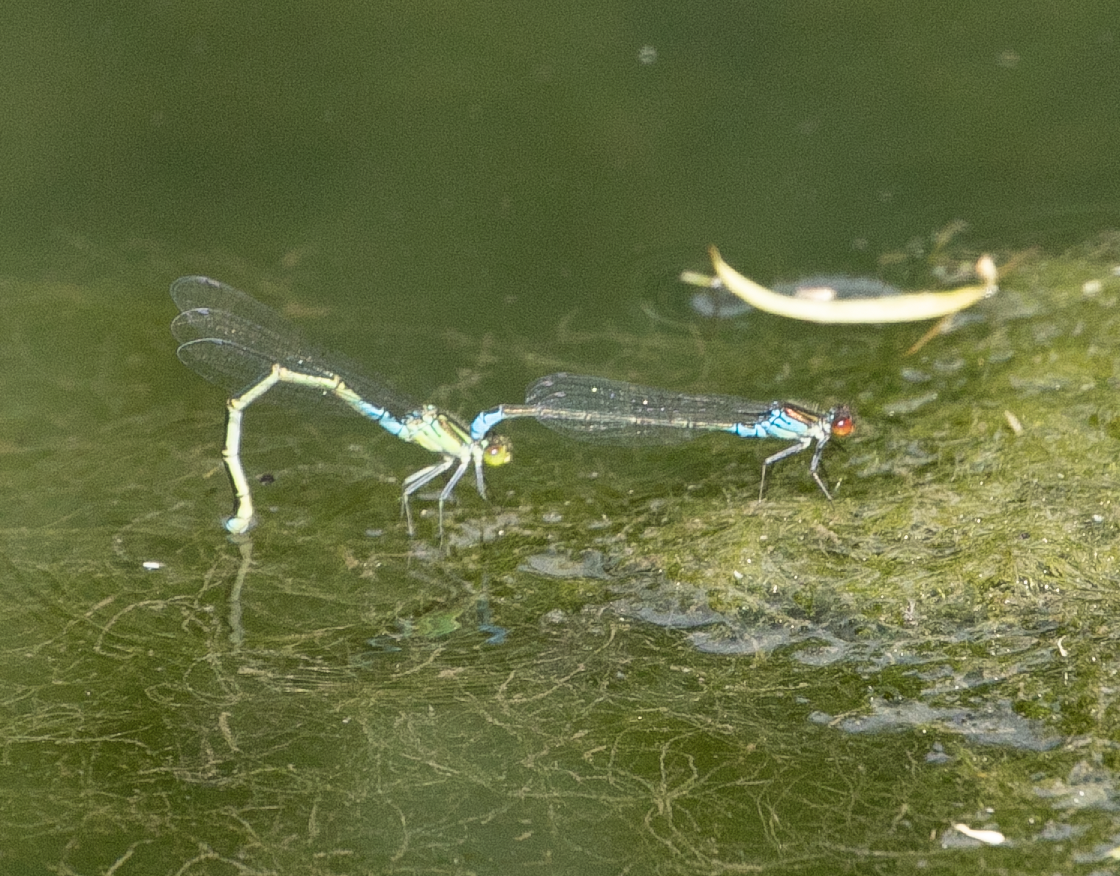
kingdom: Animalia
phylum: Arthropoda
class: Insecta
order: Odonata
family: Coenagrionidae
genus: Erythromma
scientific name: Erythromma viridulum
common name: Small red-eyed damselfly
